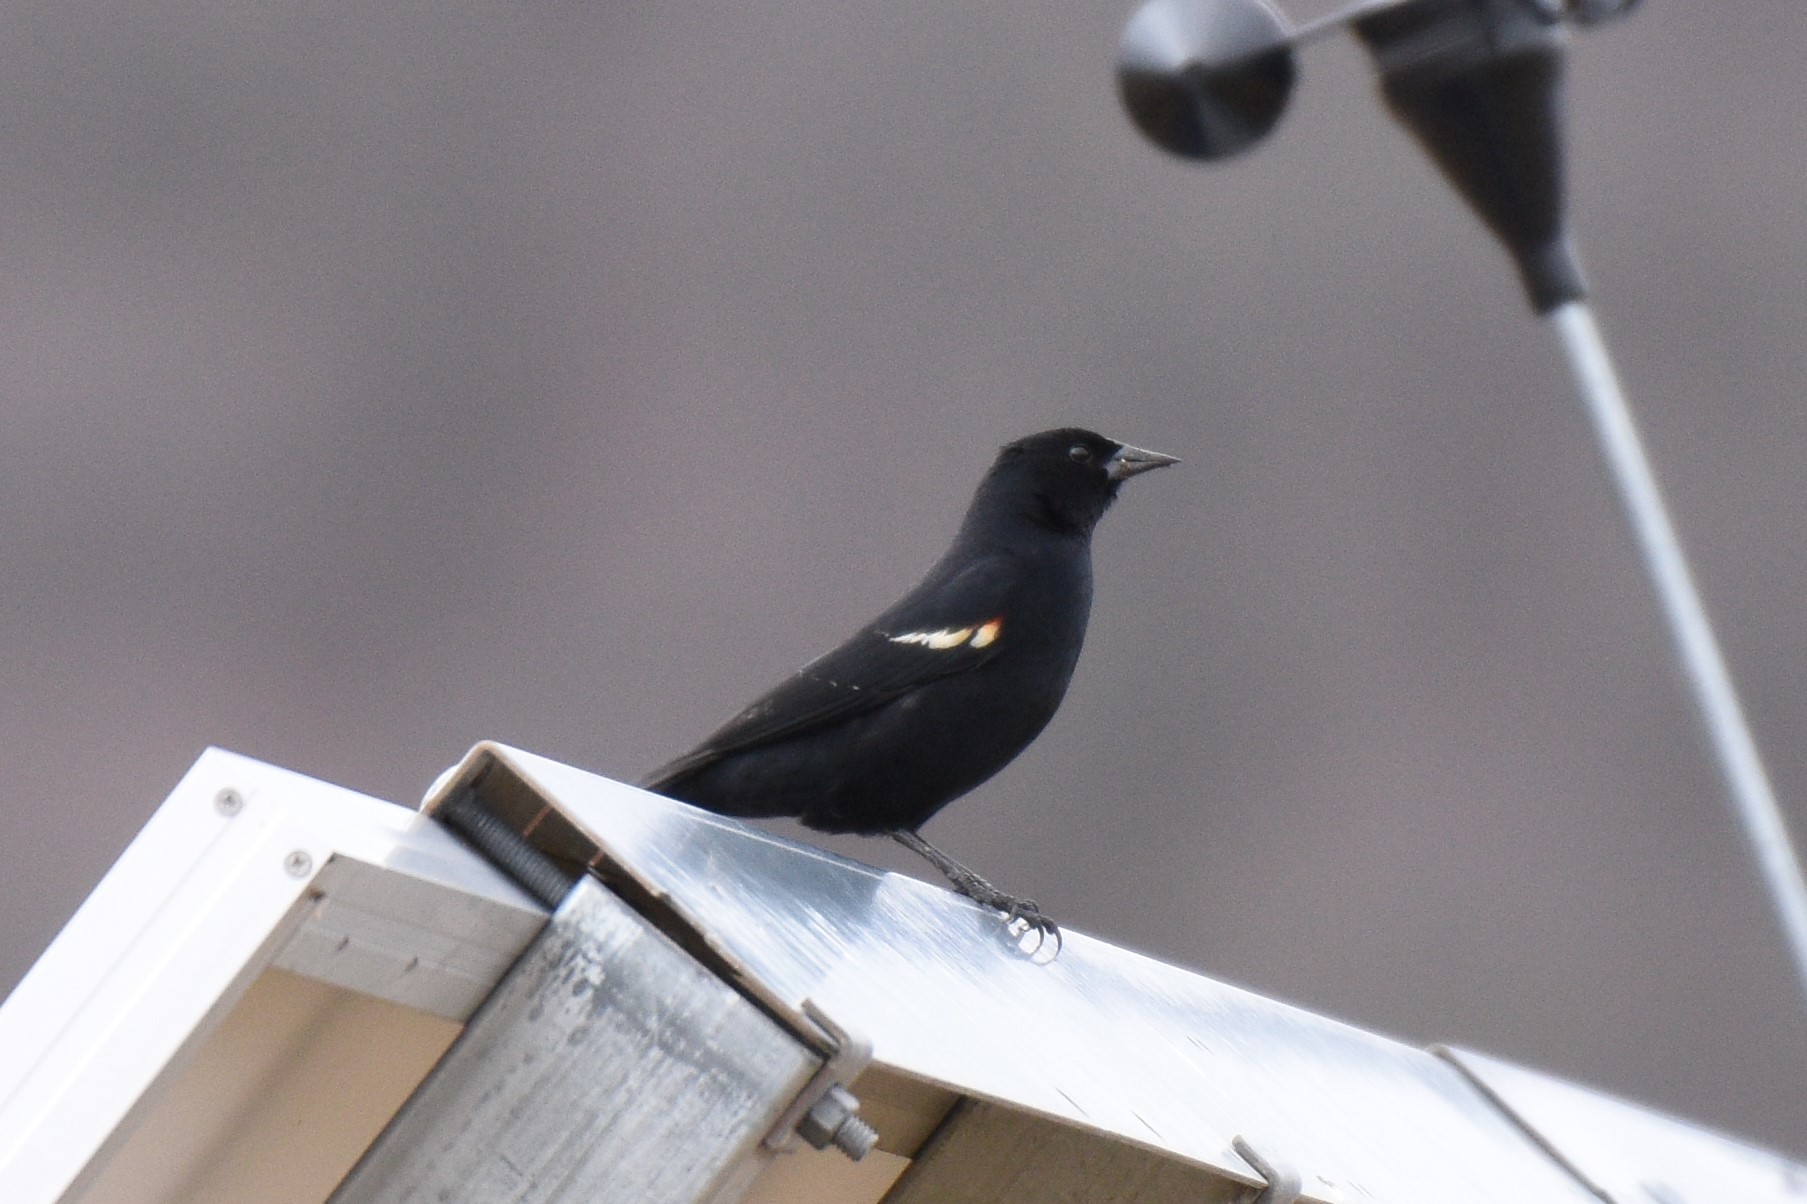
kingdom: Animalia
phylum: Chordata
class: Aves
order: Passeriformes
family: Icteridae
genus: Agelaius
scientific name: Agelaius phoeniceus
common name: Red-winged blackbird
